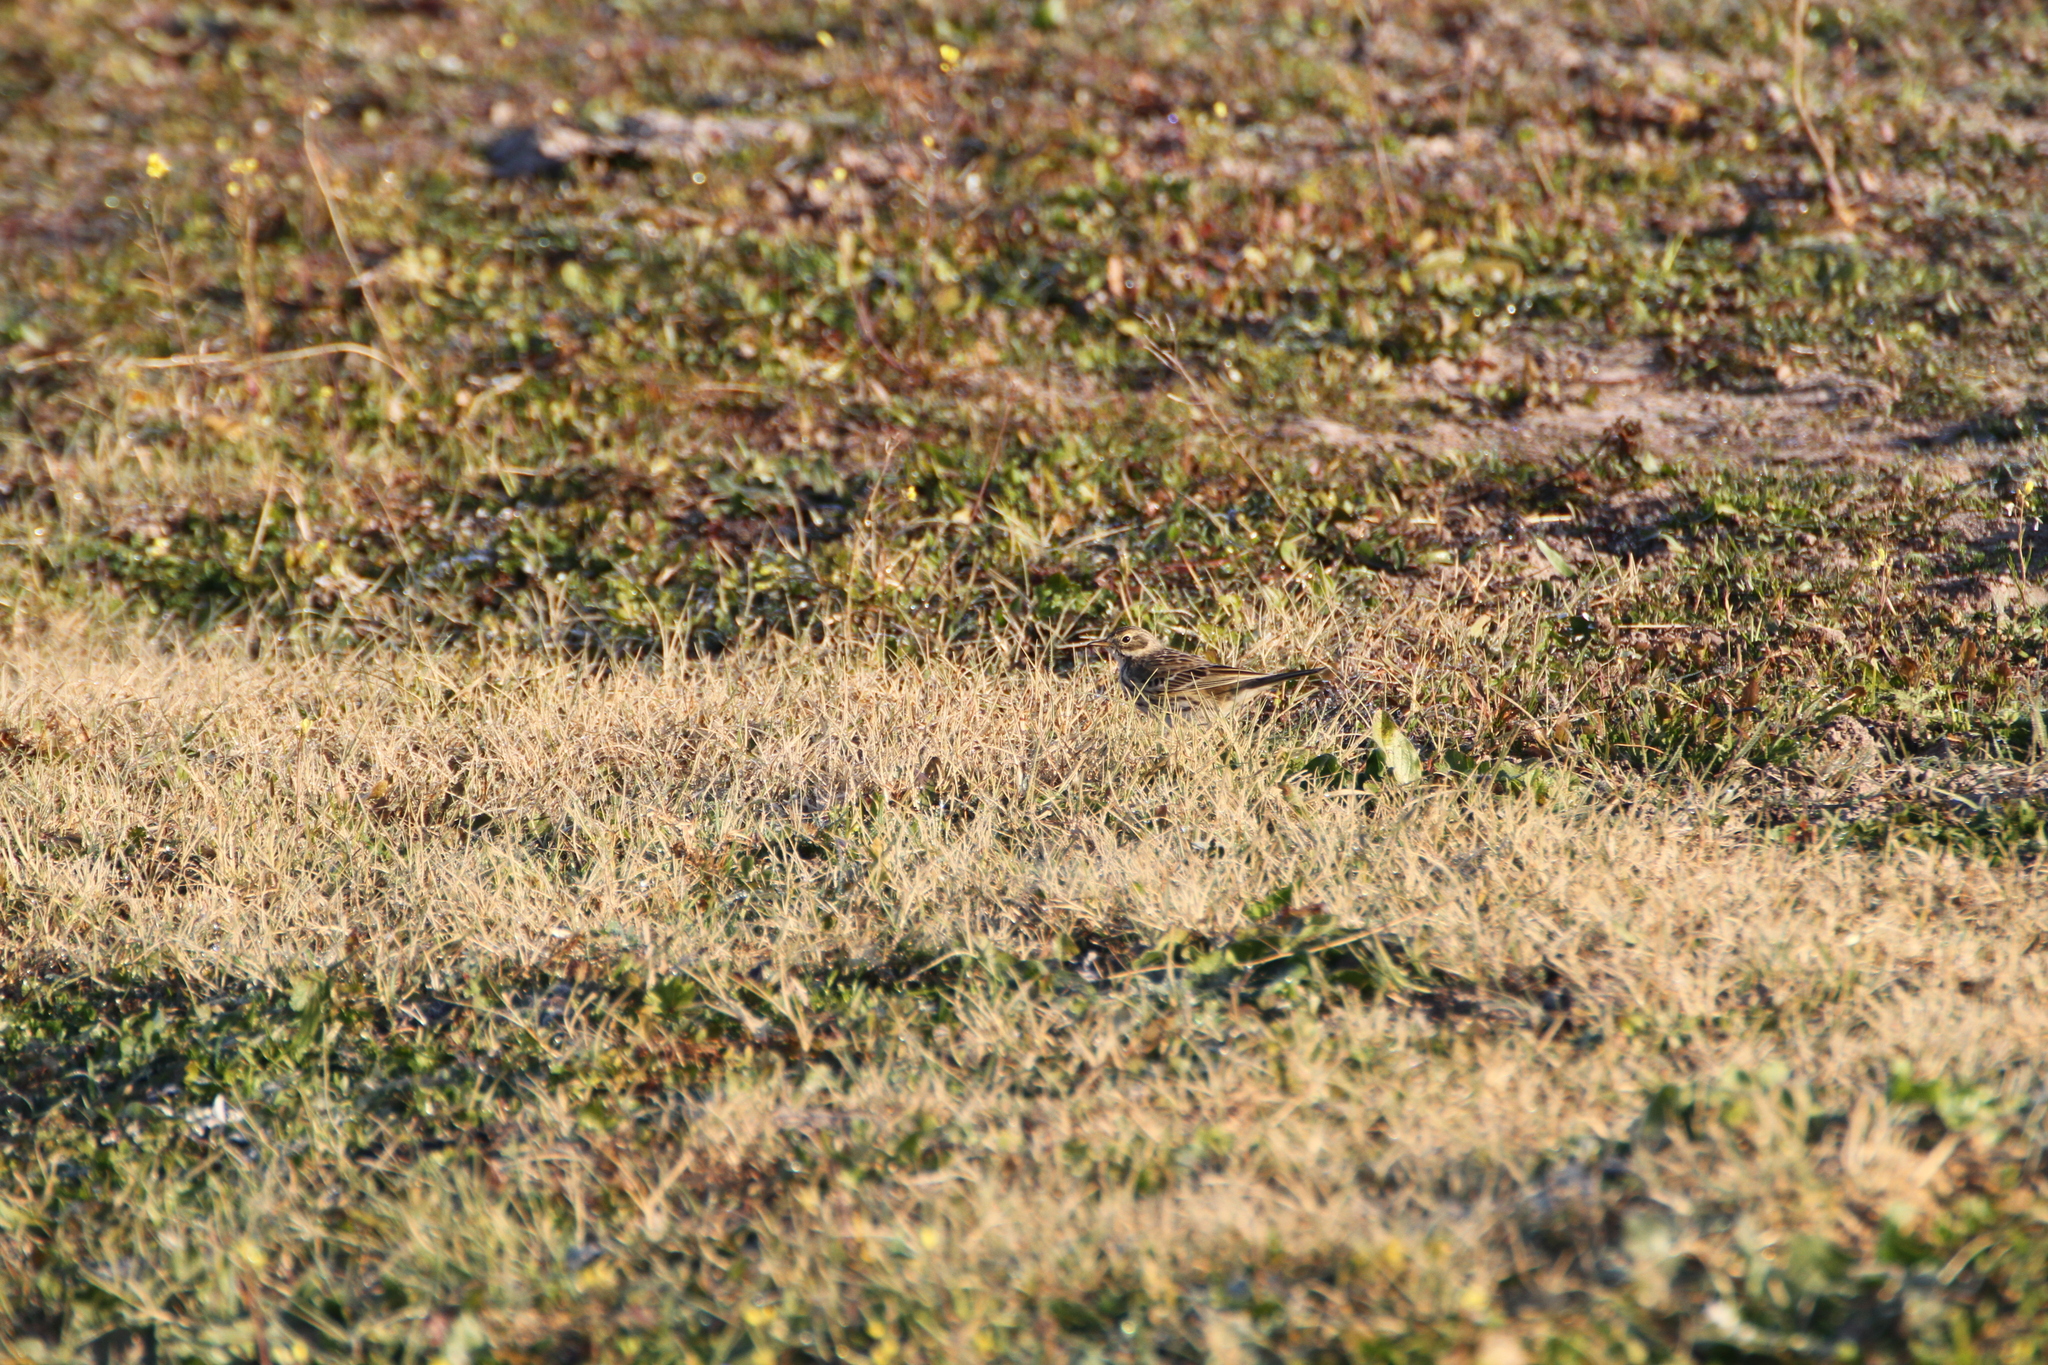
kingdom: Animalia
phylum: Chordata
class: Aves
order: Passeriformes
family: Motacillidae
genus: Anthus
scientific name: Anthus pratensis
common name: Meadow pipit
